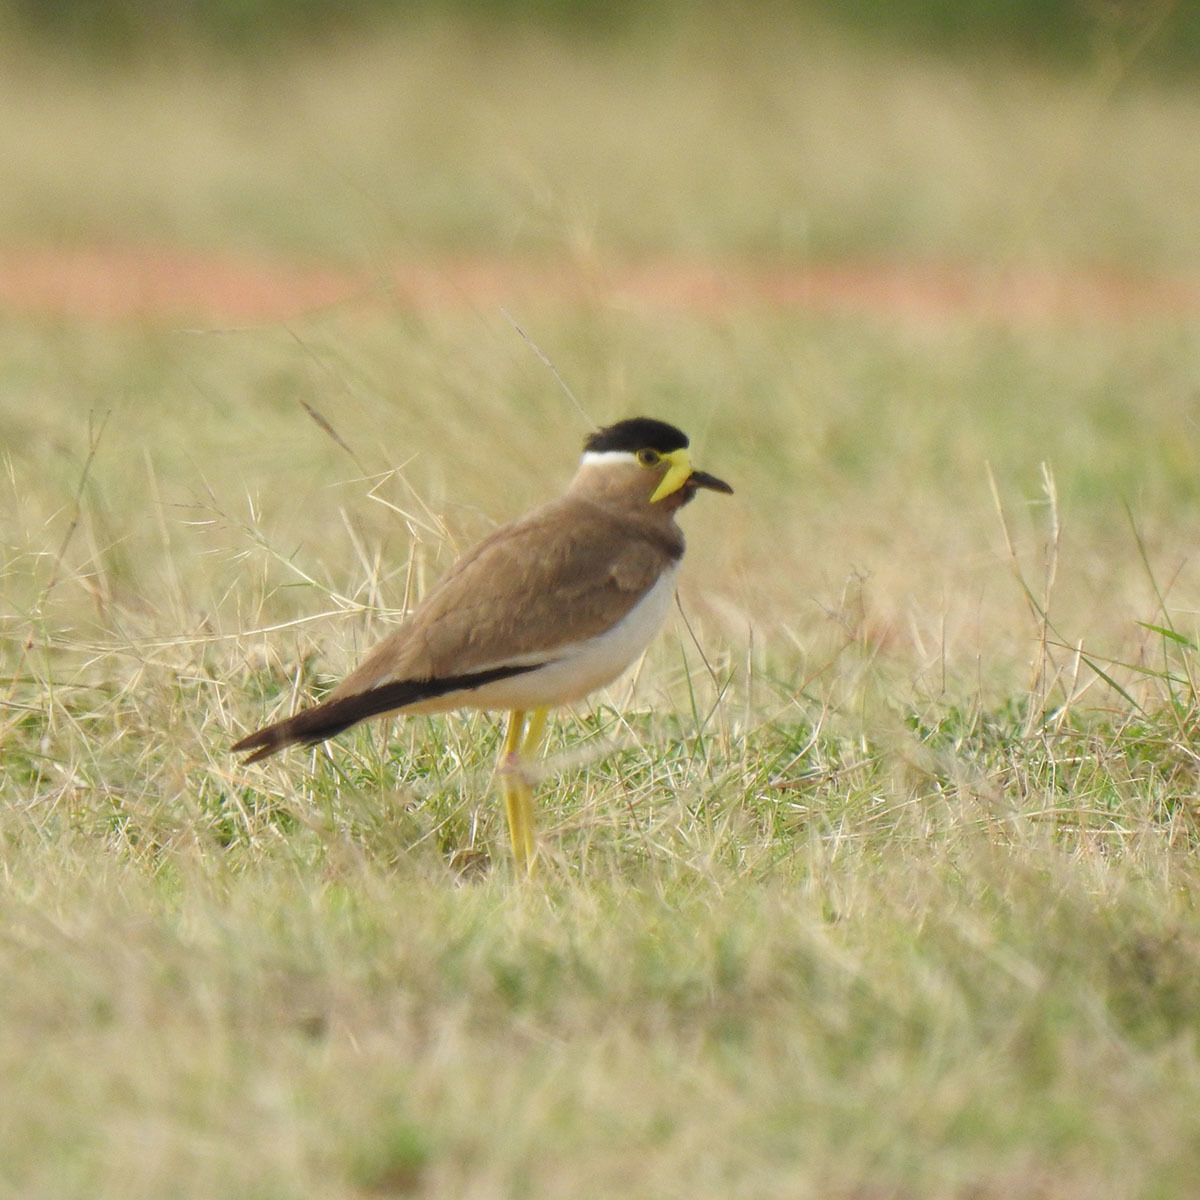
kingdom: Animalia
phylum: Chordata
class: Aves
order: Charadriiformes
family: Charadriidae
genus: Vanellus
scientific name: Vanellus malabaricus
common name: Yellow-wattled lapwing
